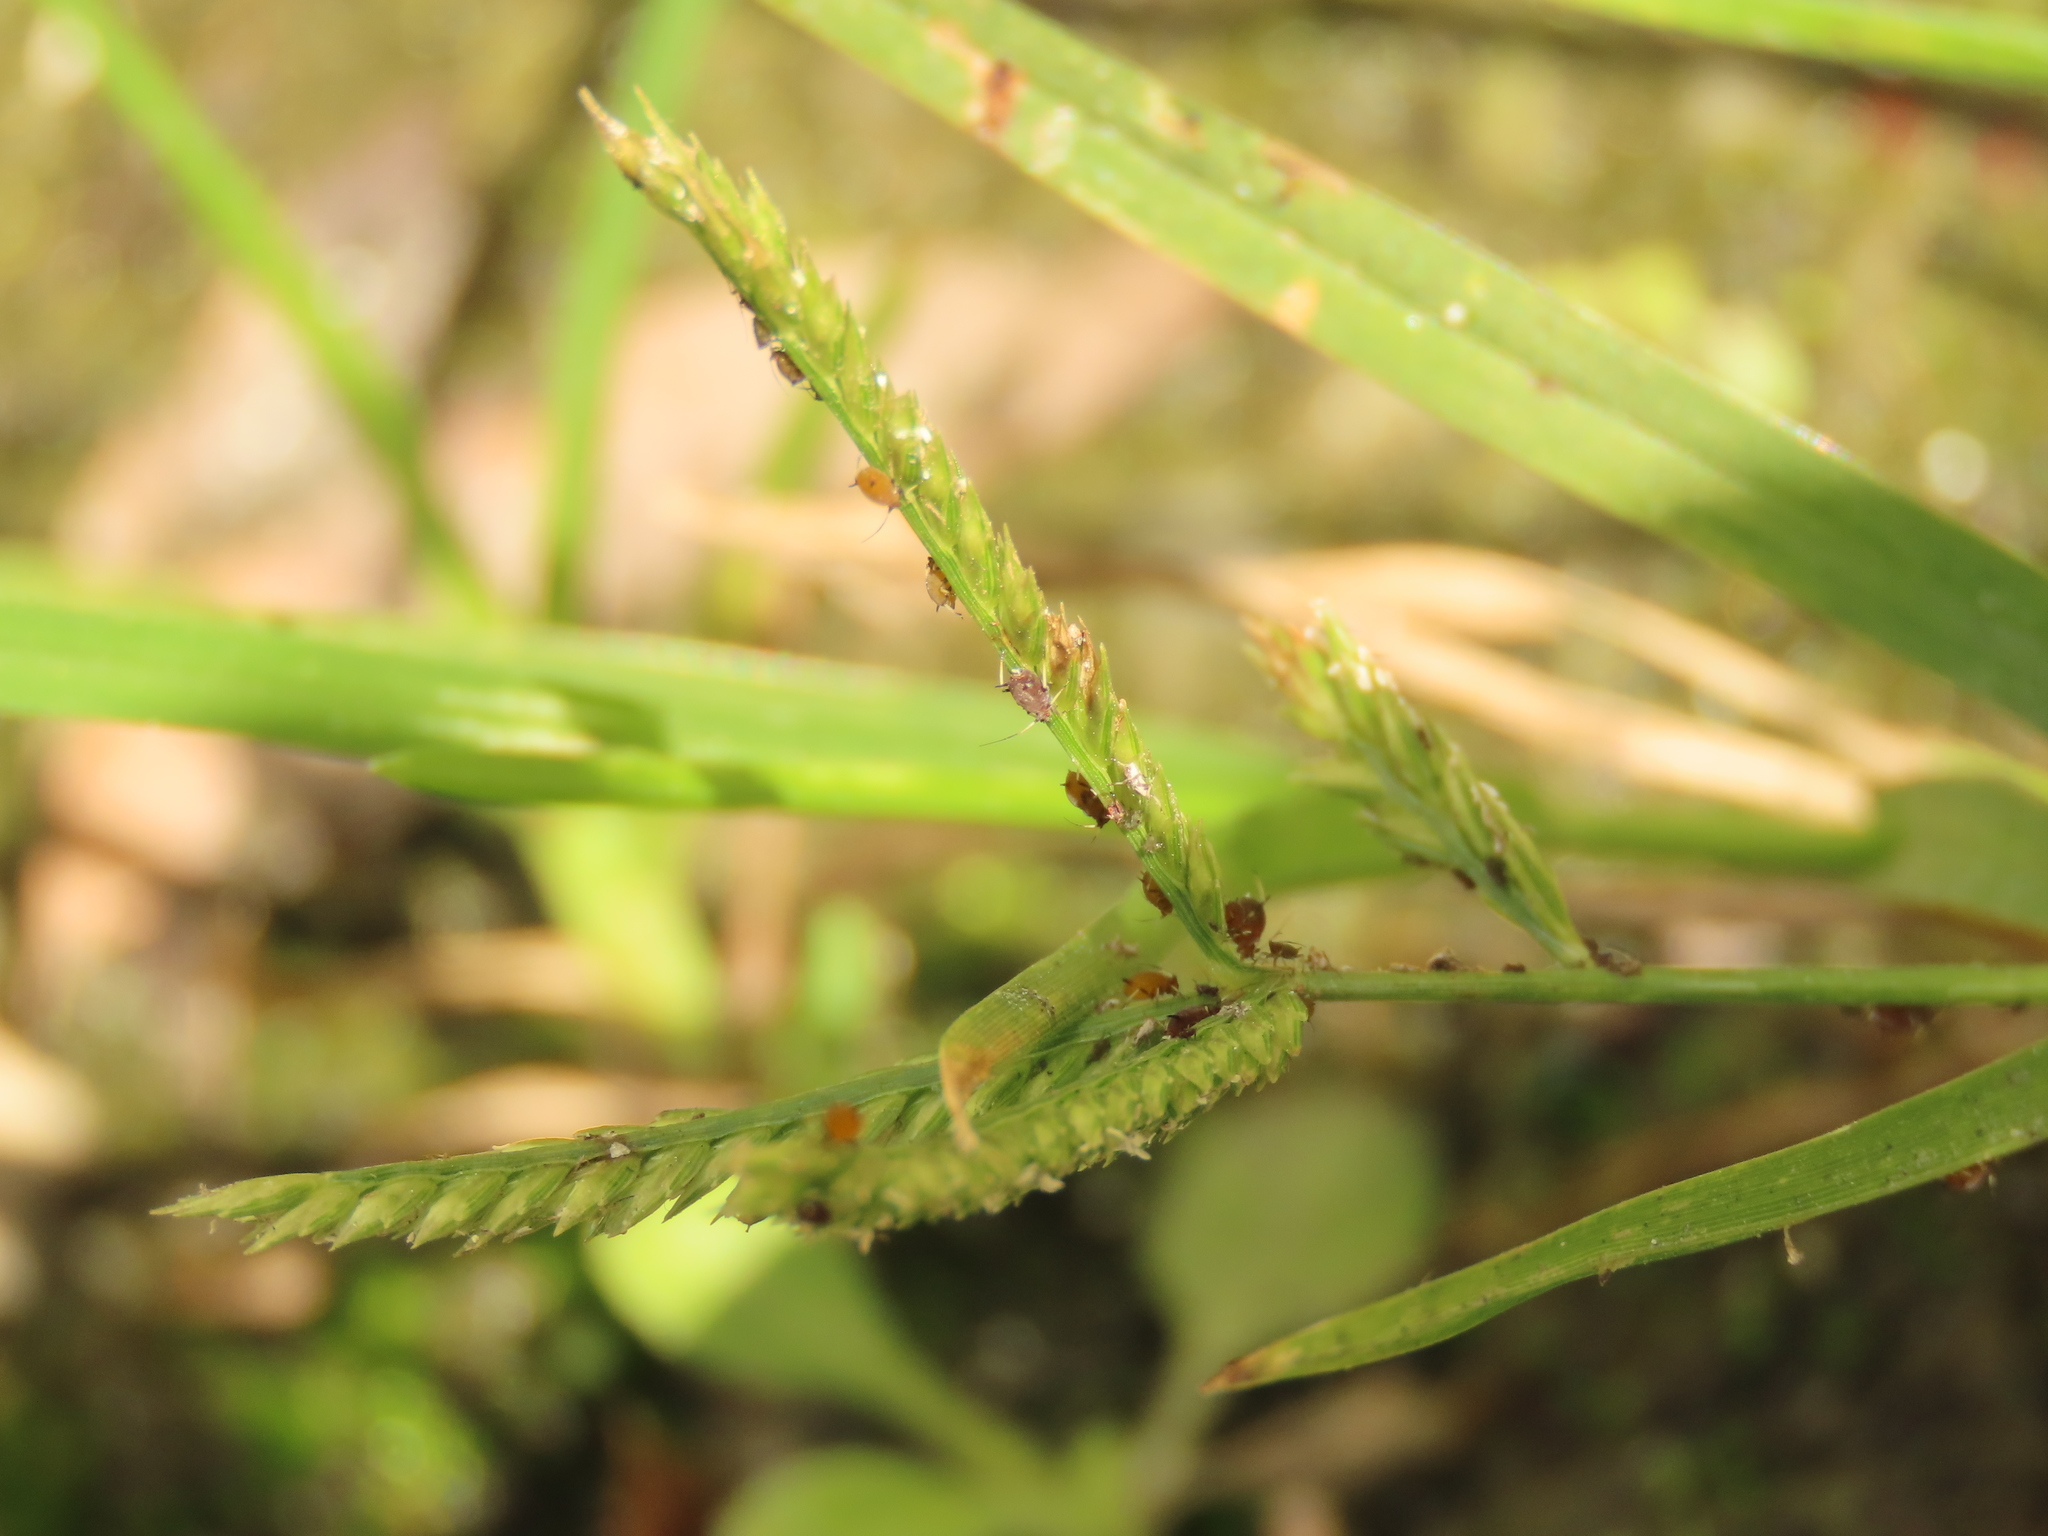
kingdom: Plantae
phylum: Tracheophyta
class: Liliopsida
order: Poales
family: Poaceae
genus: Eleusine
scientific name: Eleusine indica
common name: Yard-grass
